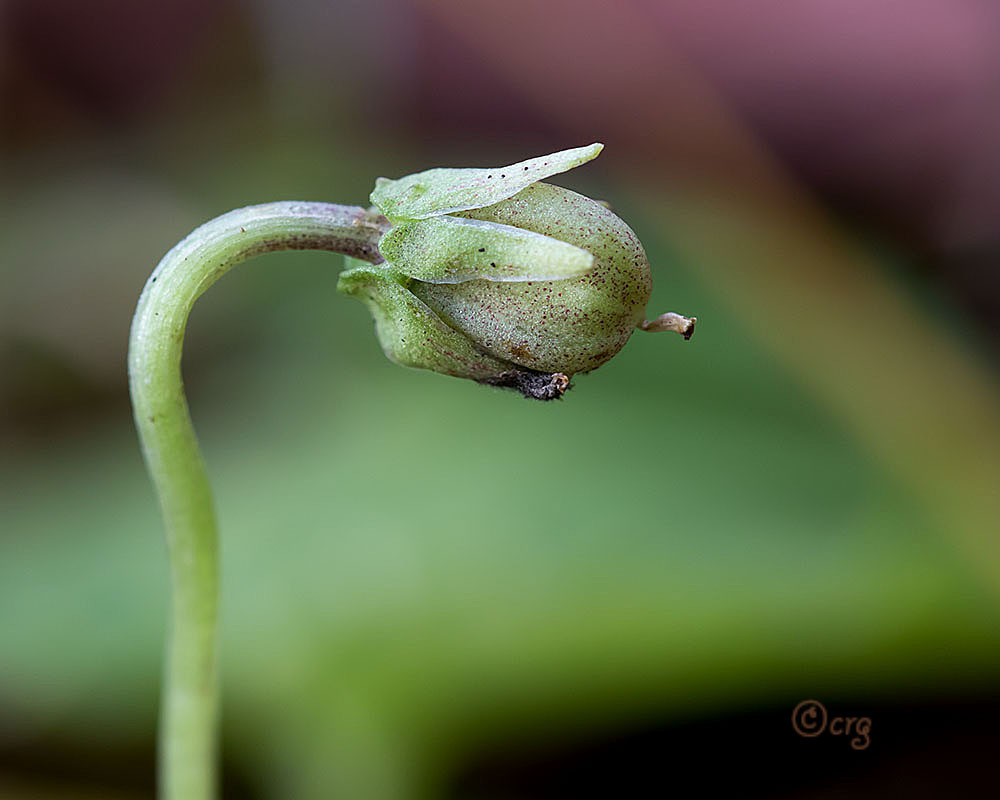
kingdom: Plantae
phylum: Tracheophyta
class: Magnoliopsida
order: Malpighiales
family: Violaceae
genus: Viola
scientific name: Viola blanda
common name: Sweet white violet
